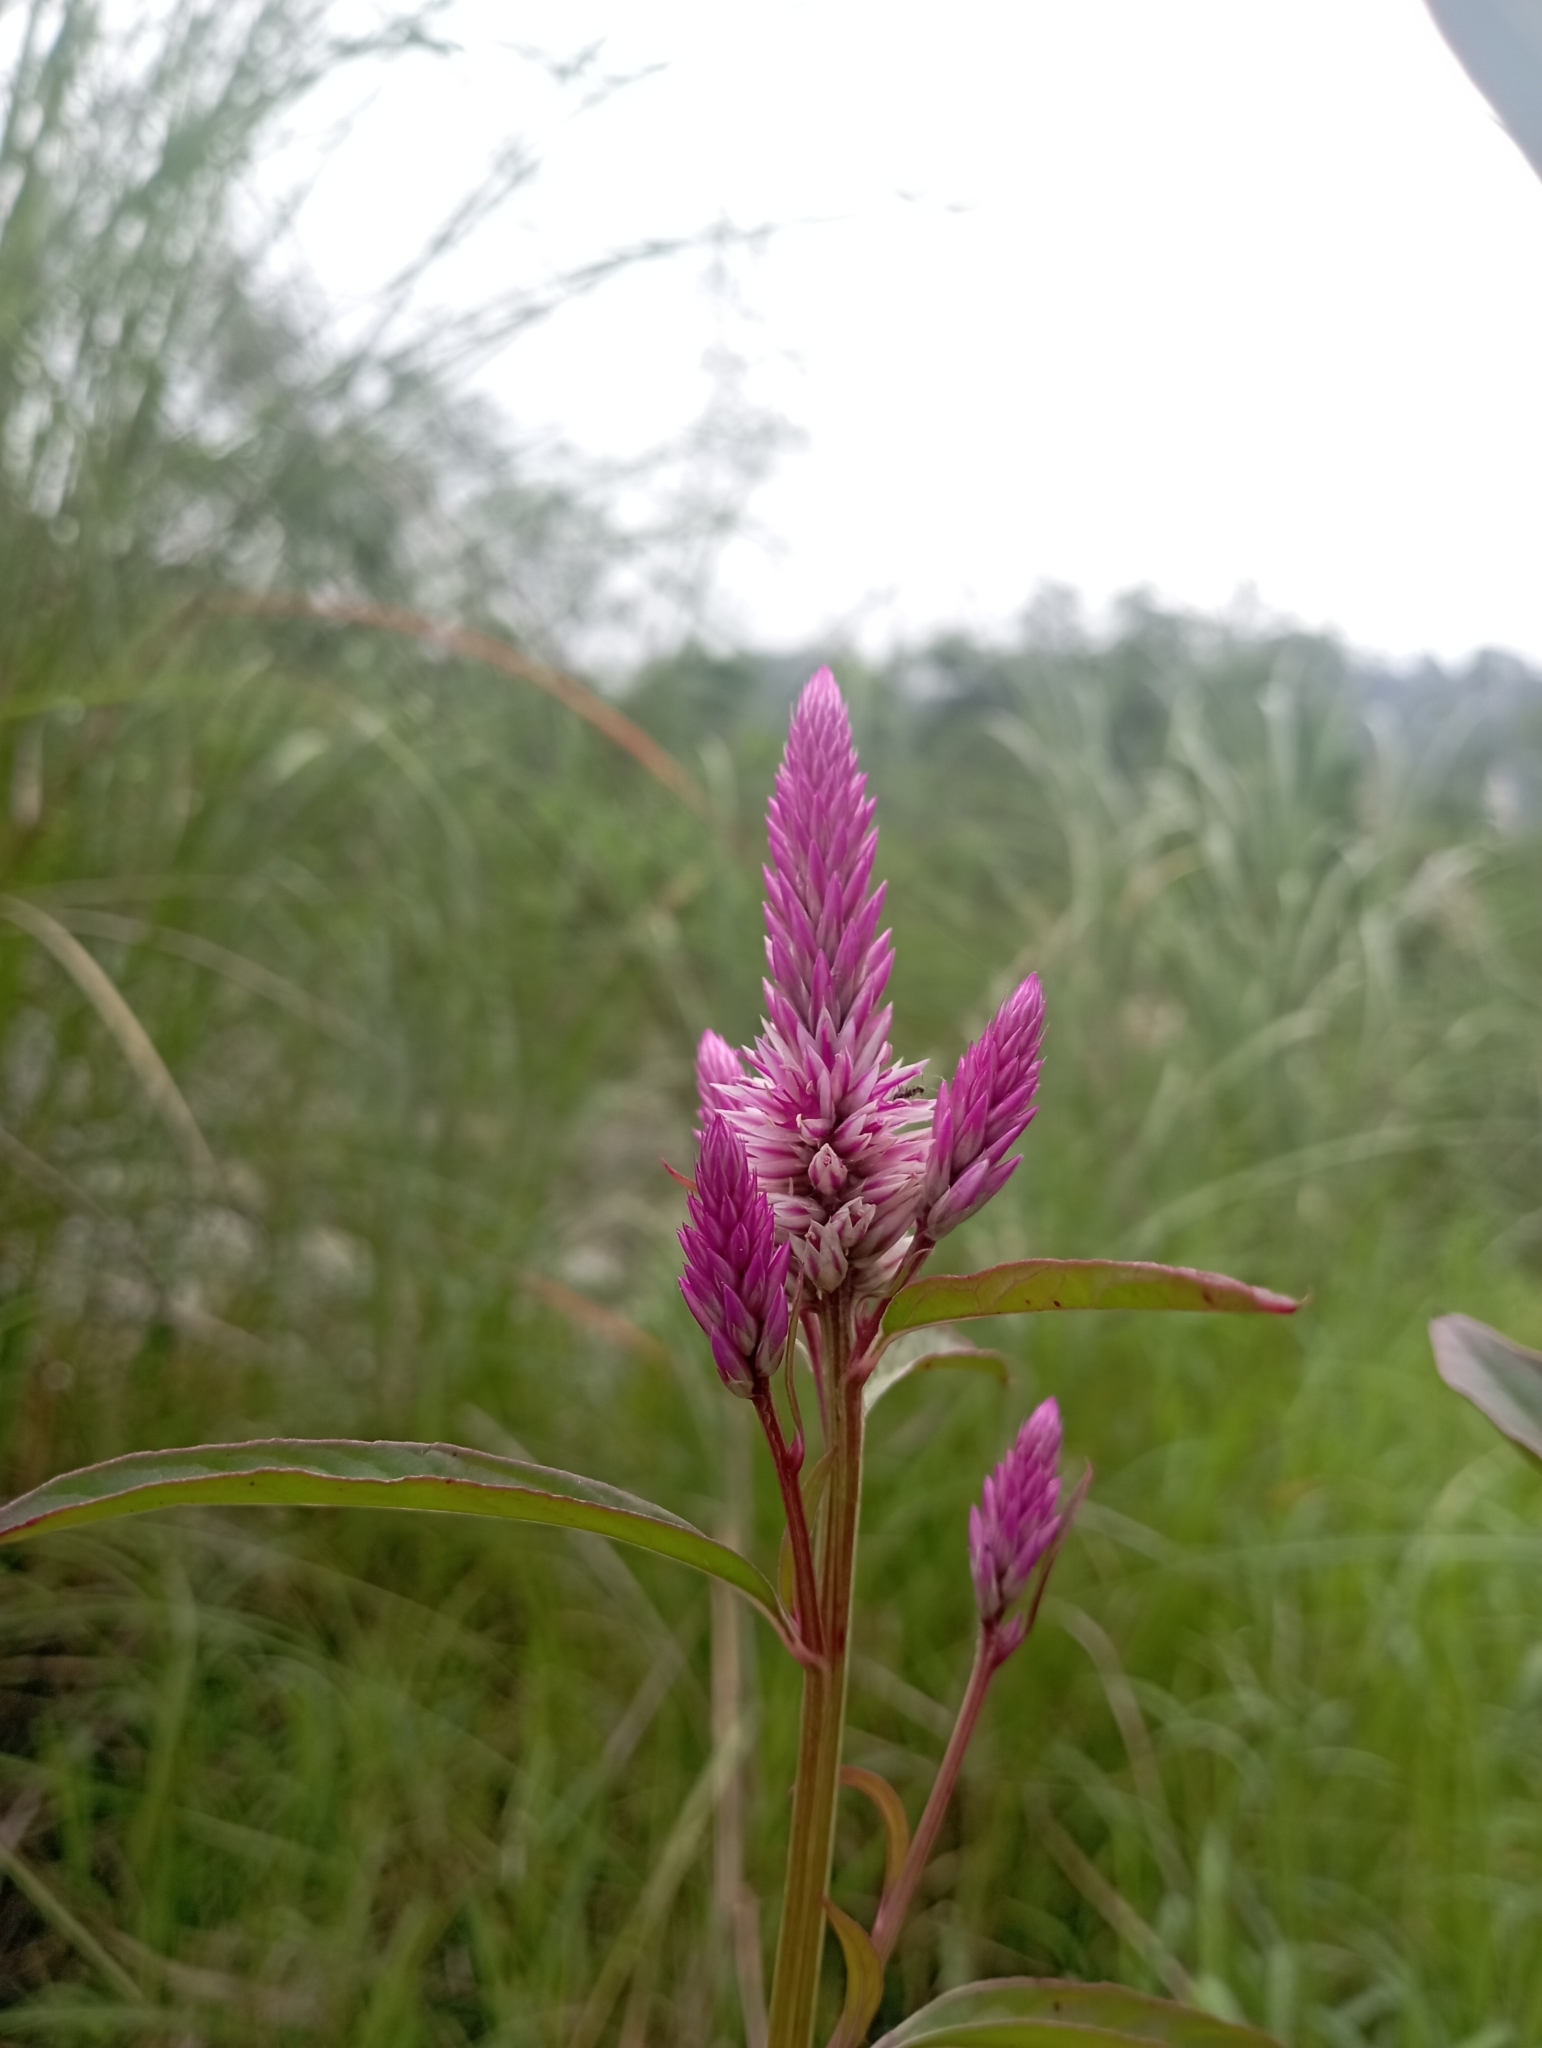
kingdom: Plantae
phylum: Tracheophyta
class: Magnoliopsida
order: Caryophyllales
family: Amaranthaceae
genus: Celosia
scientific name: Celosia argentea
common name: Feather cockscomb
